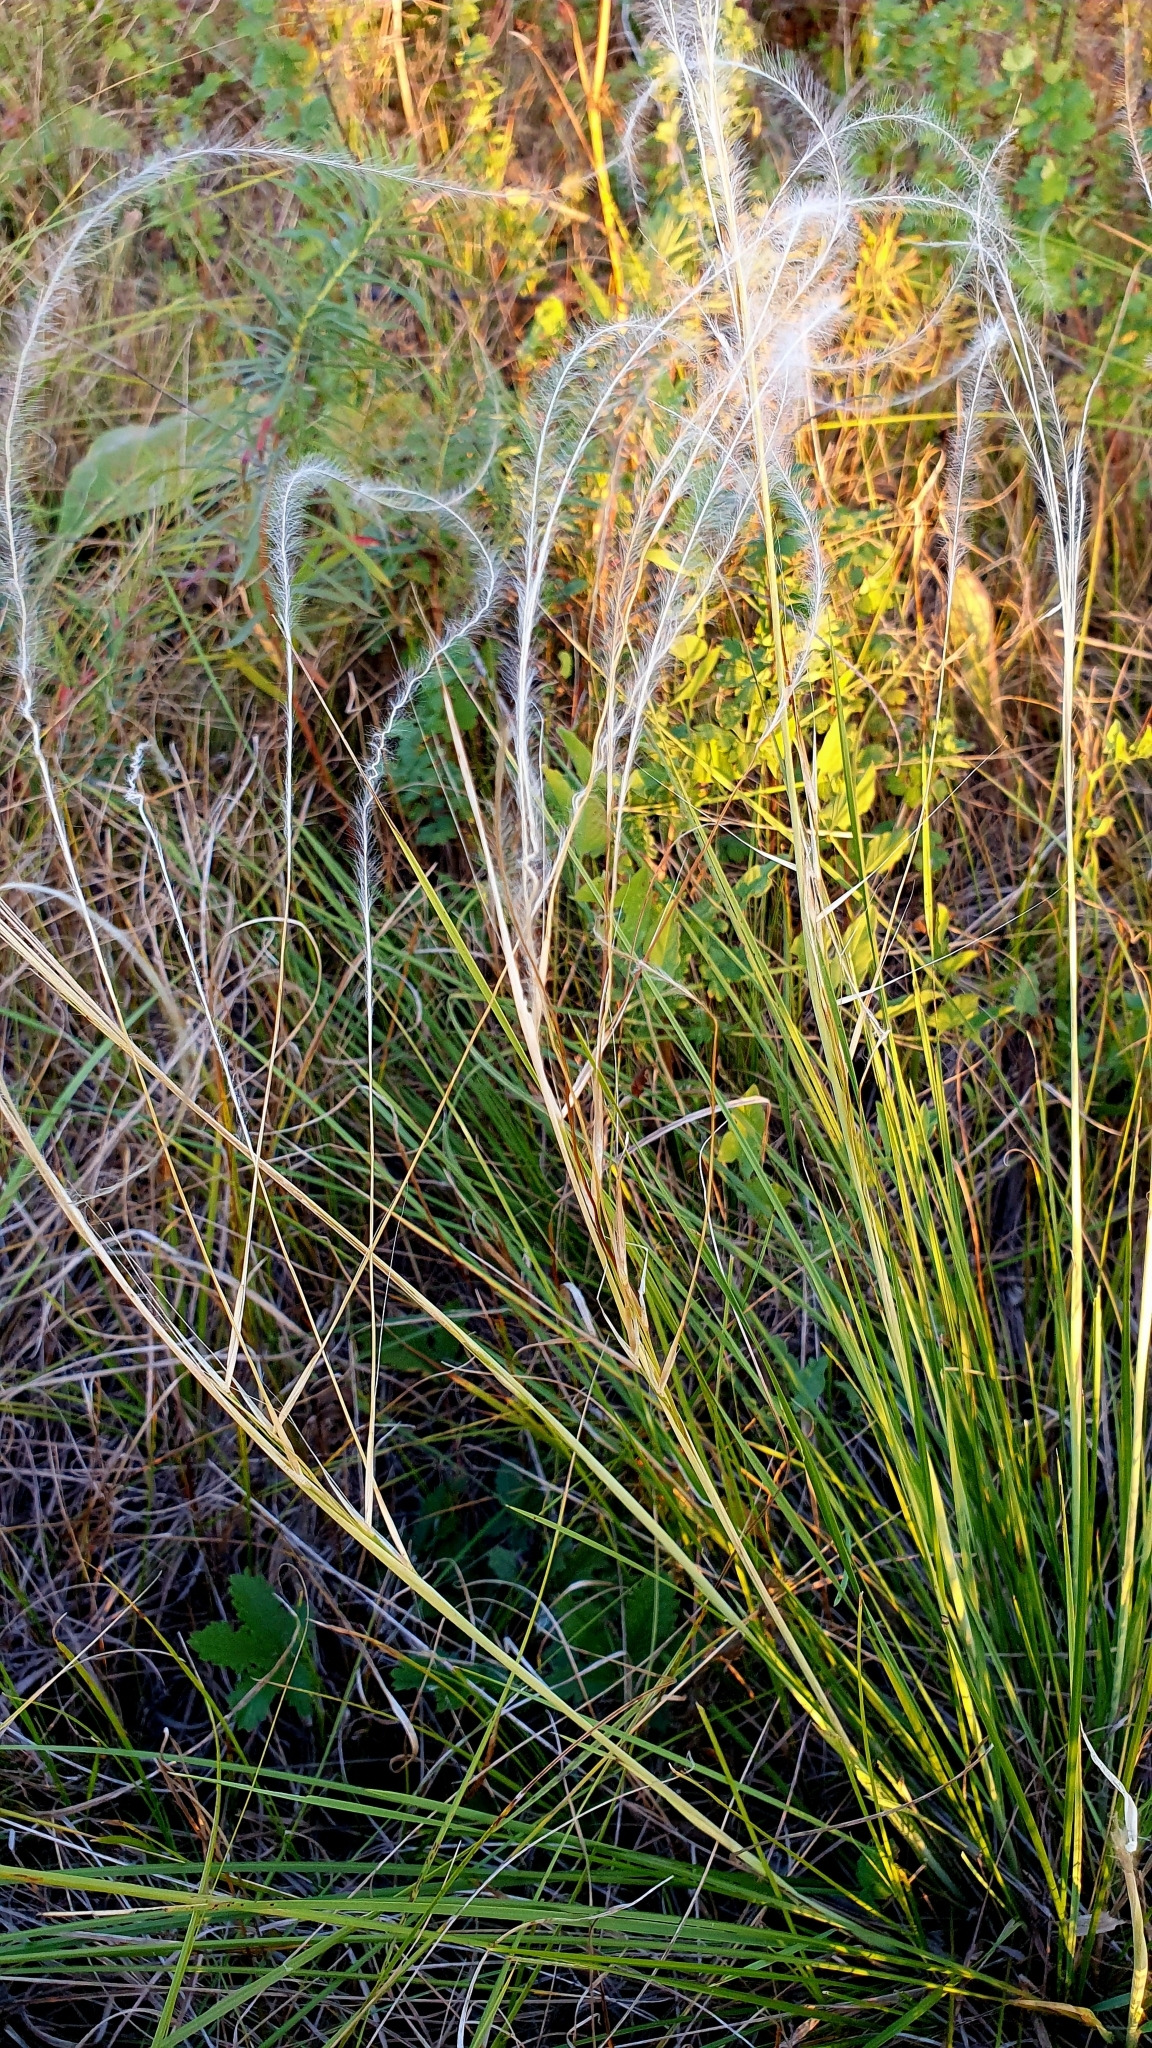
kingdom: Plantae
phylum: Tracheophyta
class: Liliopsida
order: Poales
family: Poaceae
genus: Stipa
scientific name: Stipa pennata
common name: European feather grass
